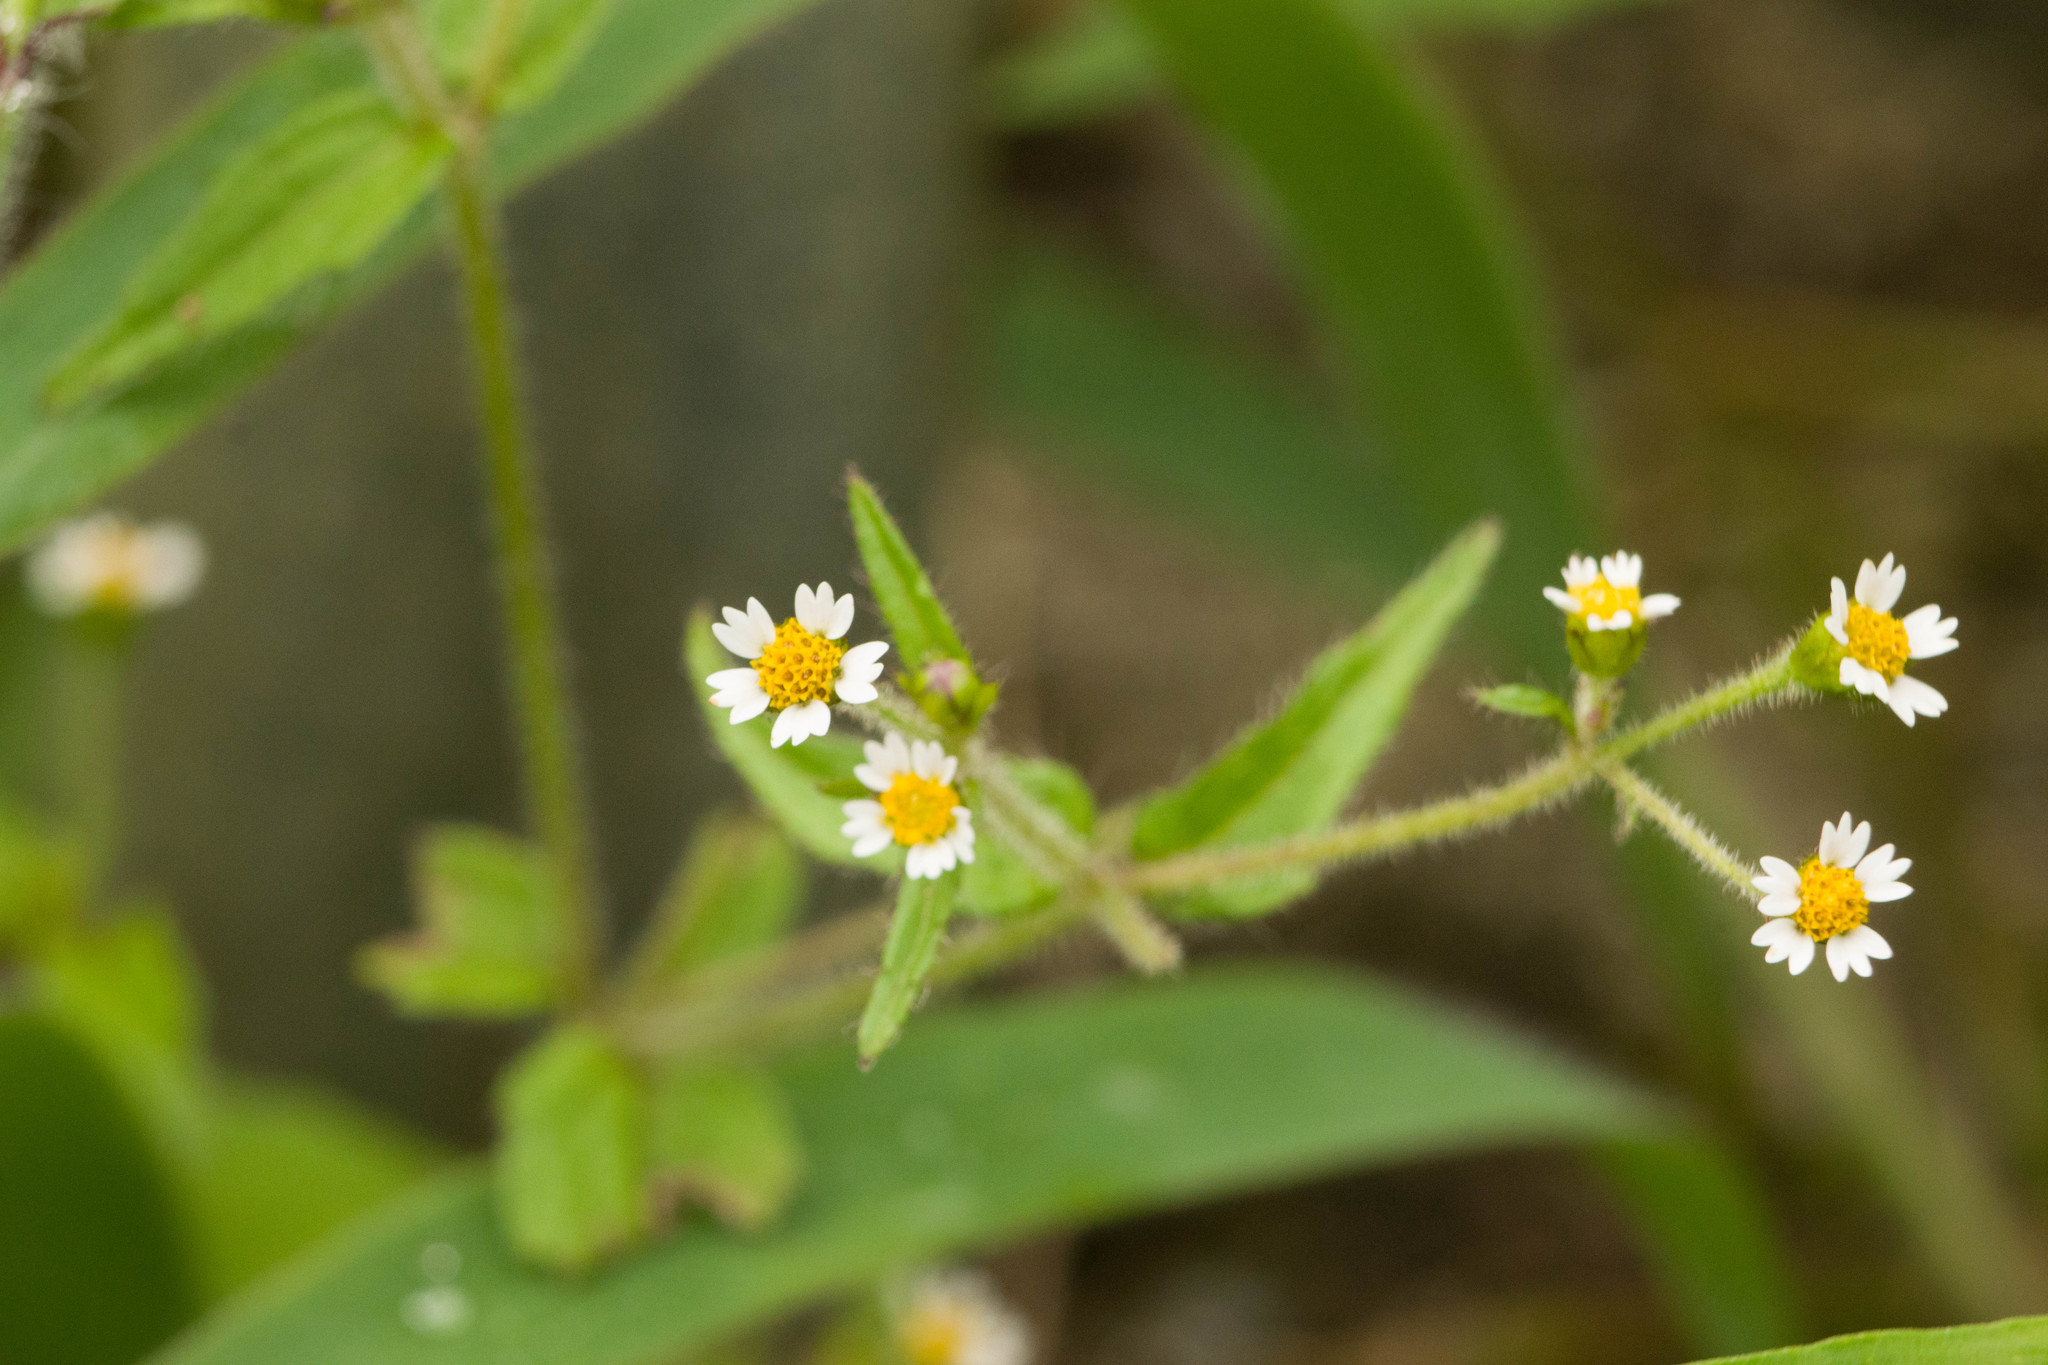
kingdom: Plantae
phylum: Tracheophyta
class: Magnoliopsida
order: Asterales
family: Asteraceae
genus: Galinsoga
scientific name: Galinsoga quadriradiata
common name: Shaggy soldier
